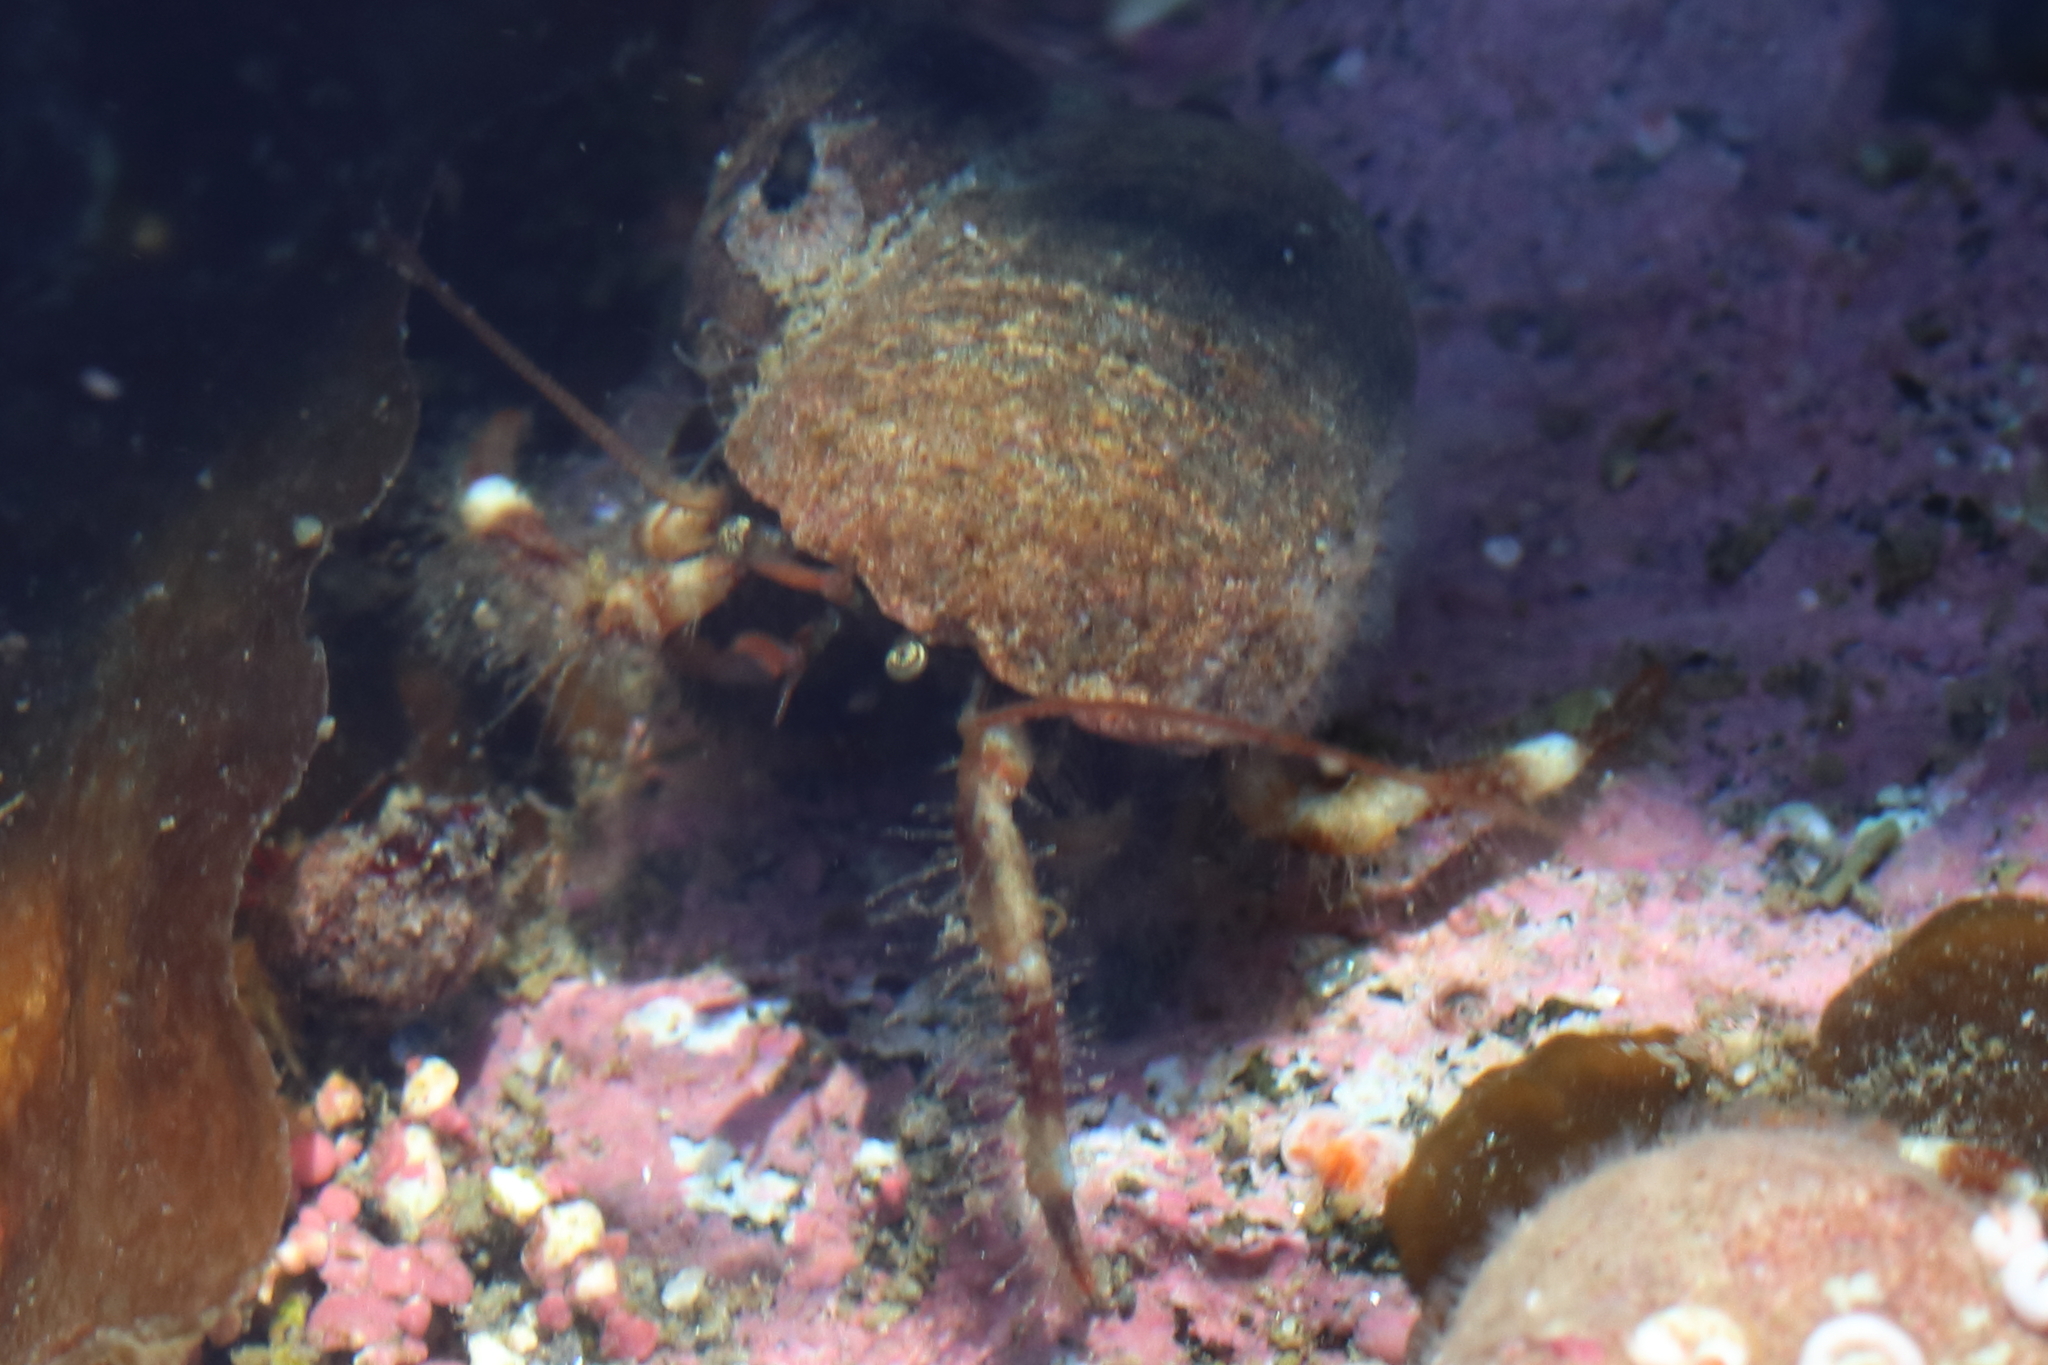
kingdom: Animalia
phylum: Arthropoda
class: Malacostraca
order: Decapoda
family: Paguridae
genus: Pagurus
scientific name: Pagurus caurinus
